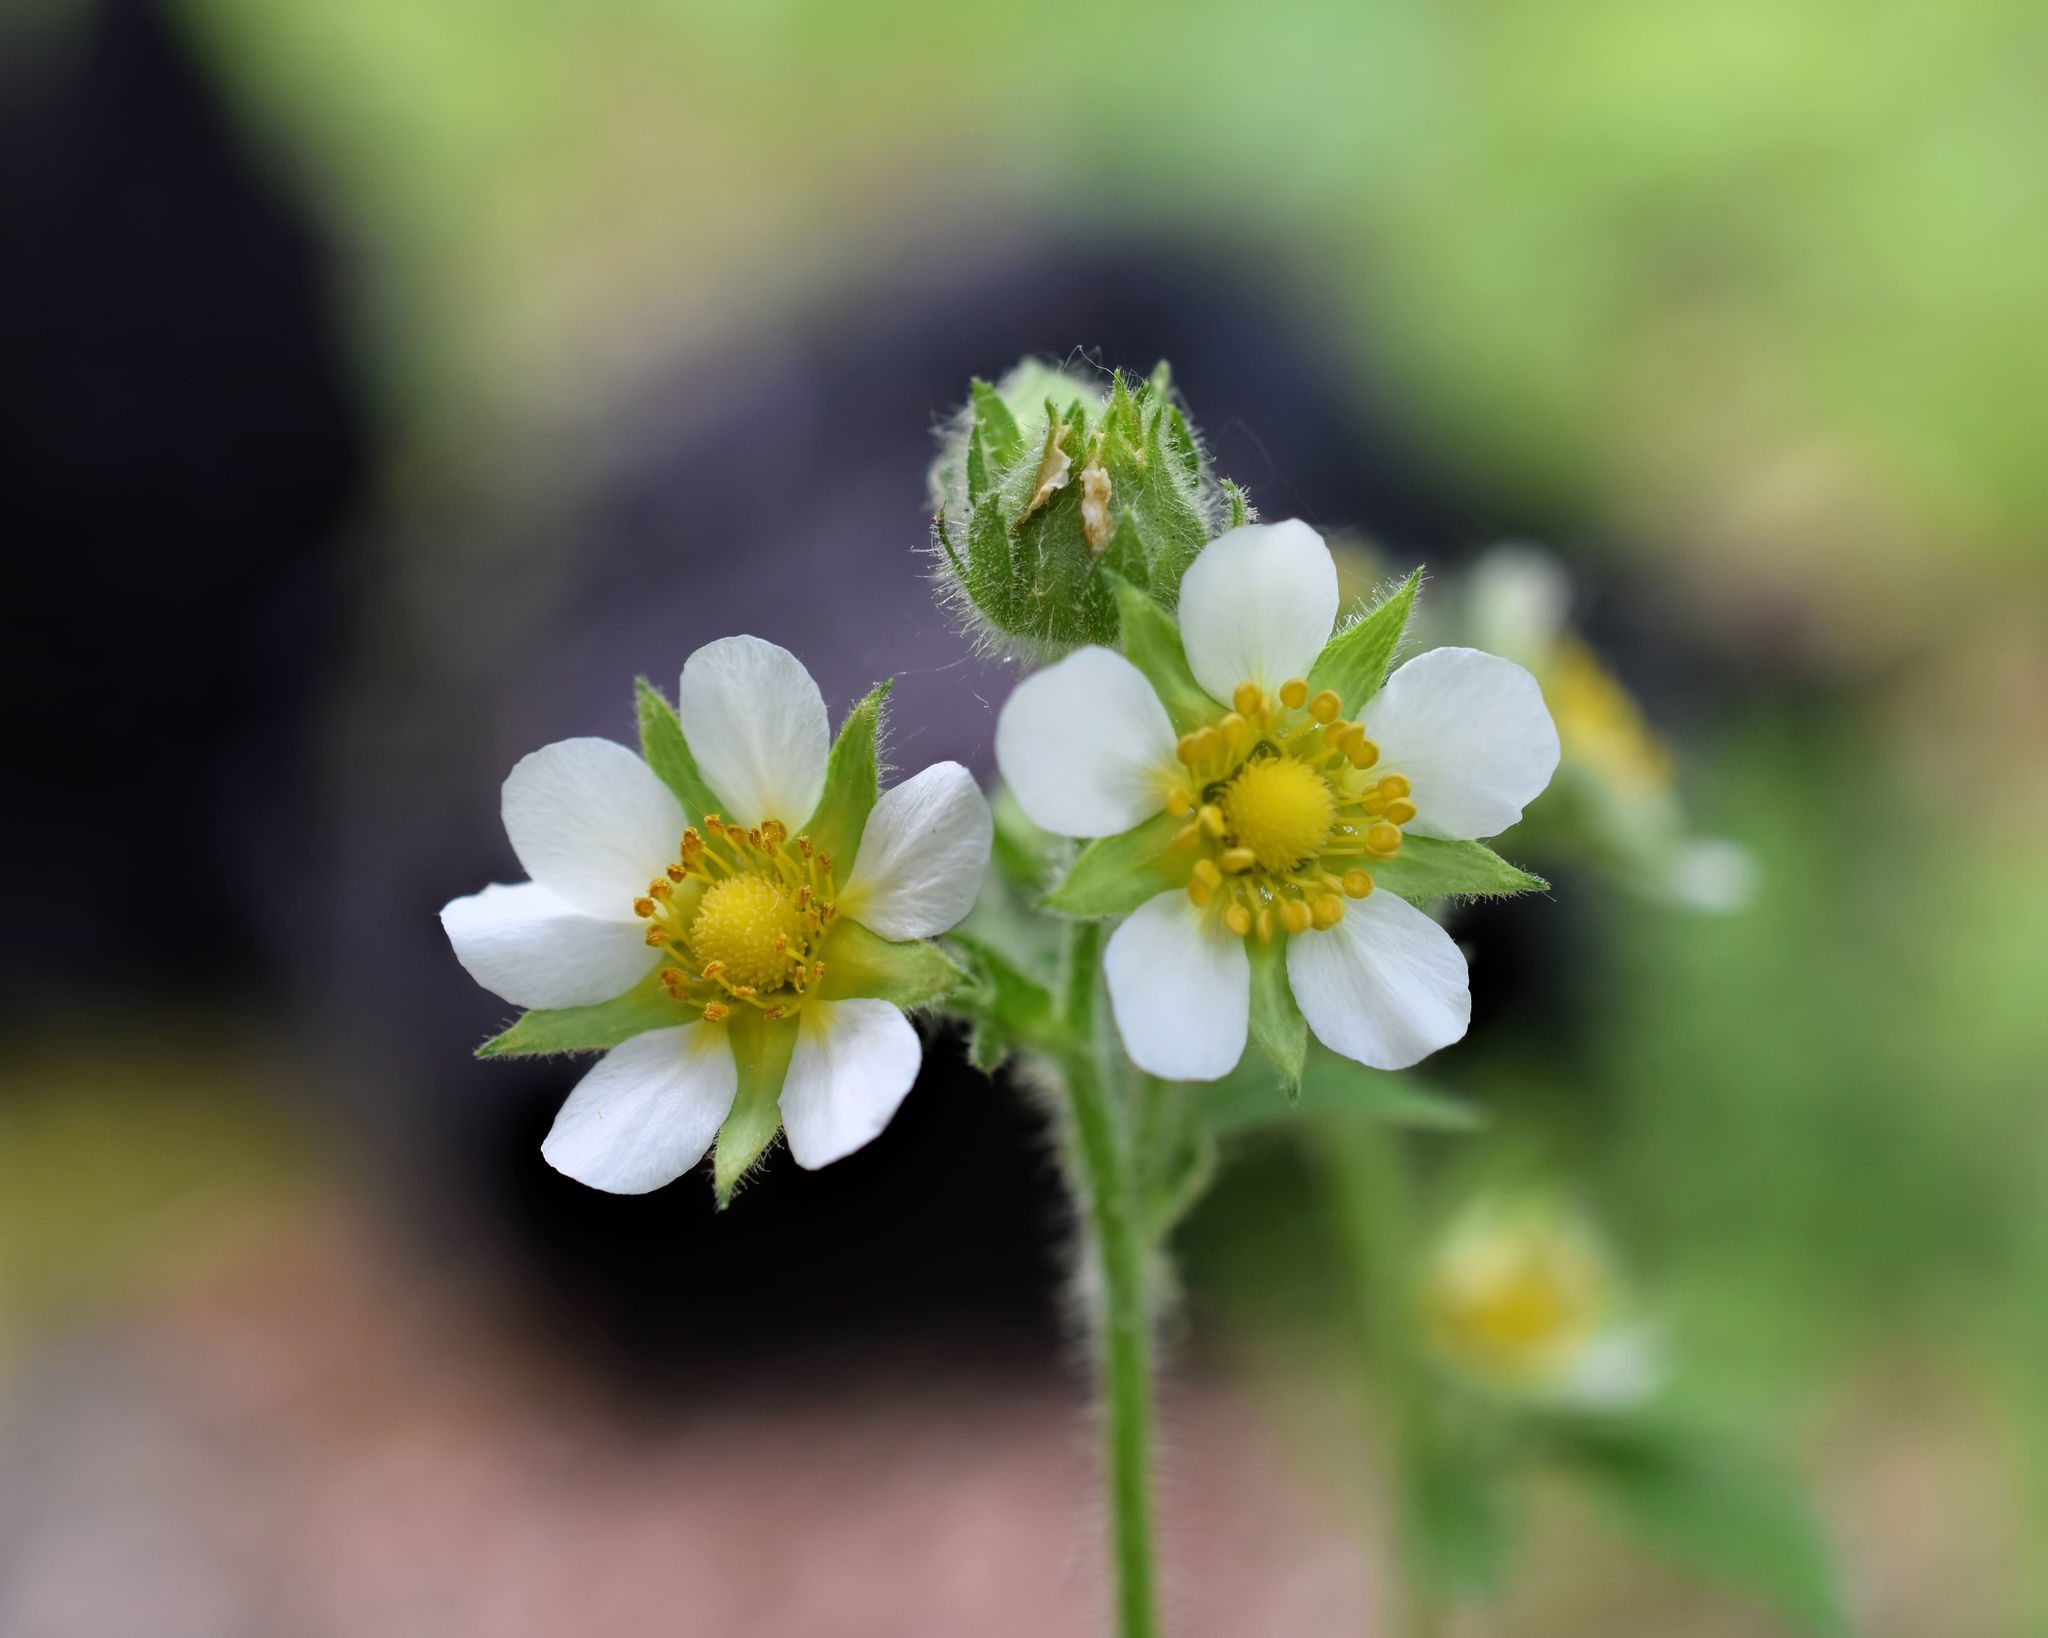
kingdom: Plantae
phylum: Tracheophyta
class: Magnoliopsida
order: Rosales
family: Rosaceae
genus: Drymocallis
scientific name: Drymocallis arguta
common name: Tall cinquefoil
